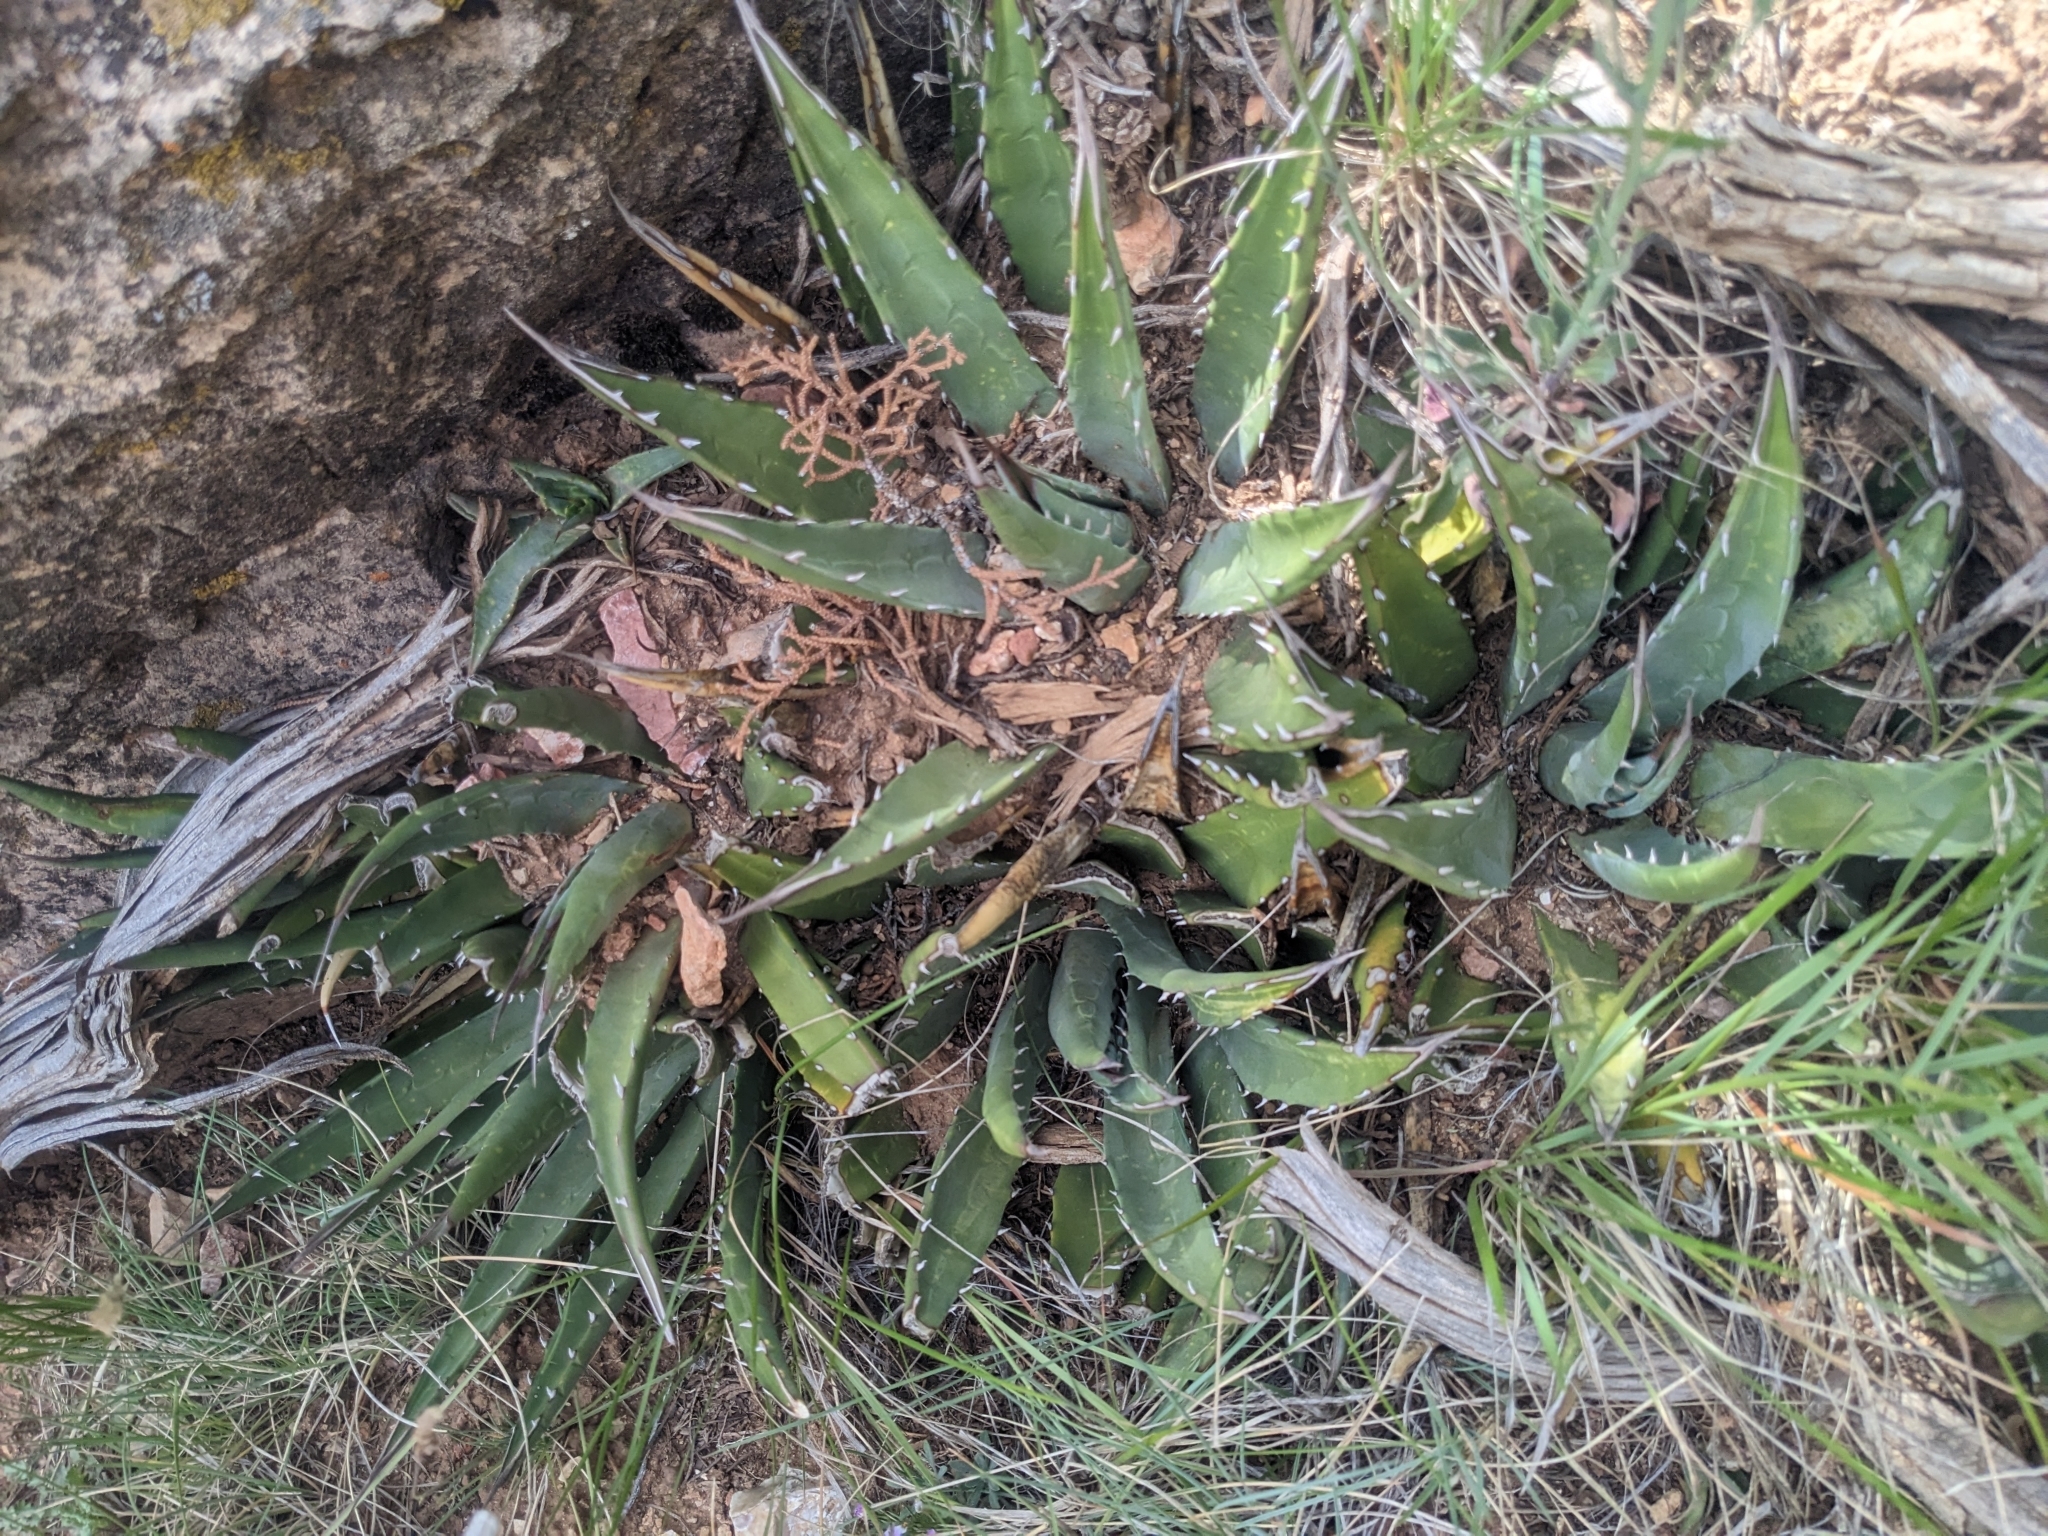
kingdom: Plantae
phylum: Tracheophyta
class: Liliopsida
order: Asparagales
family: Asparagaceae
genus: Agave
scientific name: Agave utahensis
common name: Utah agave
